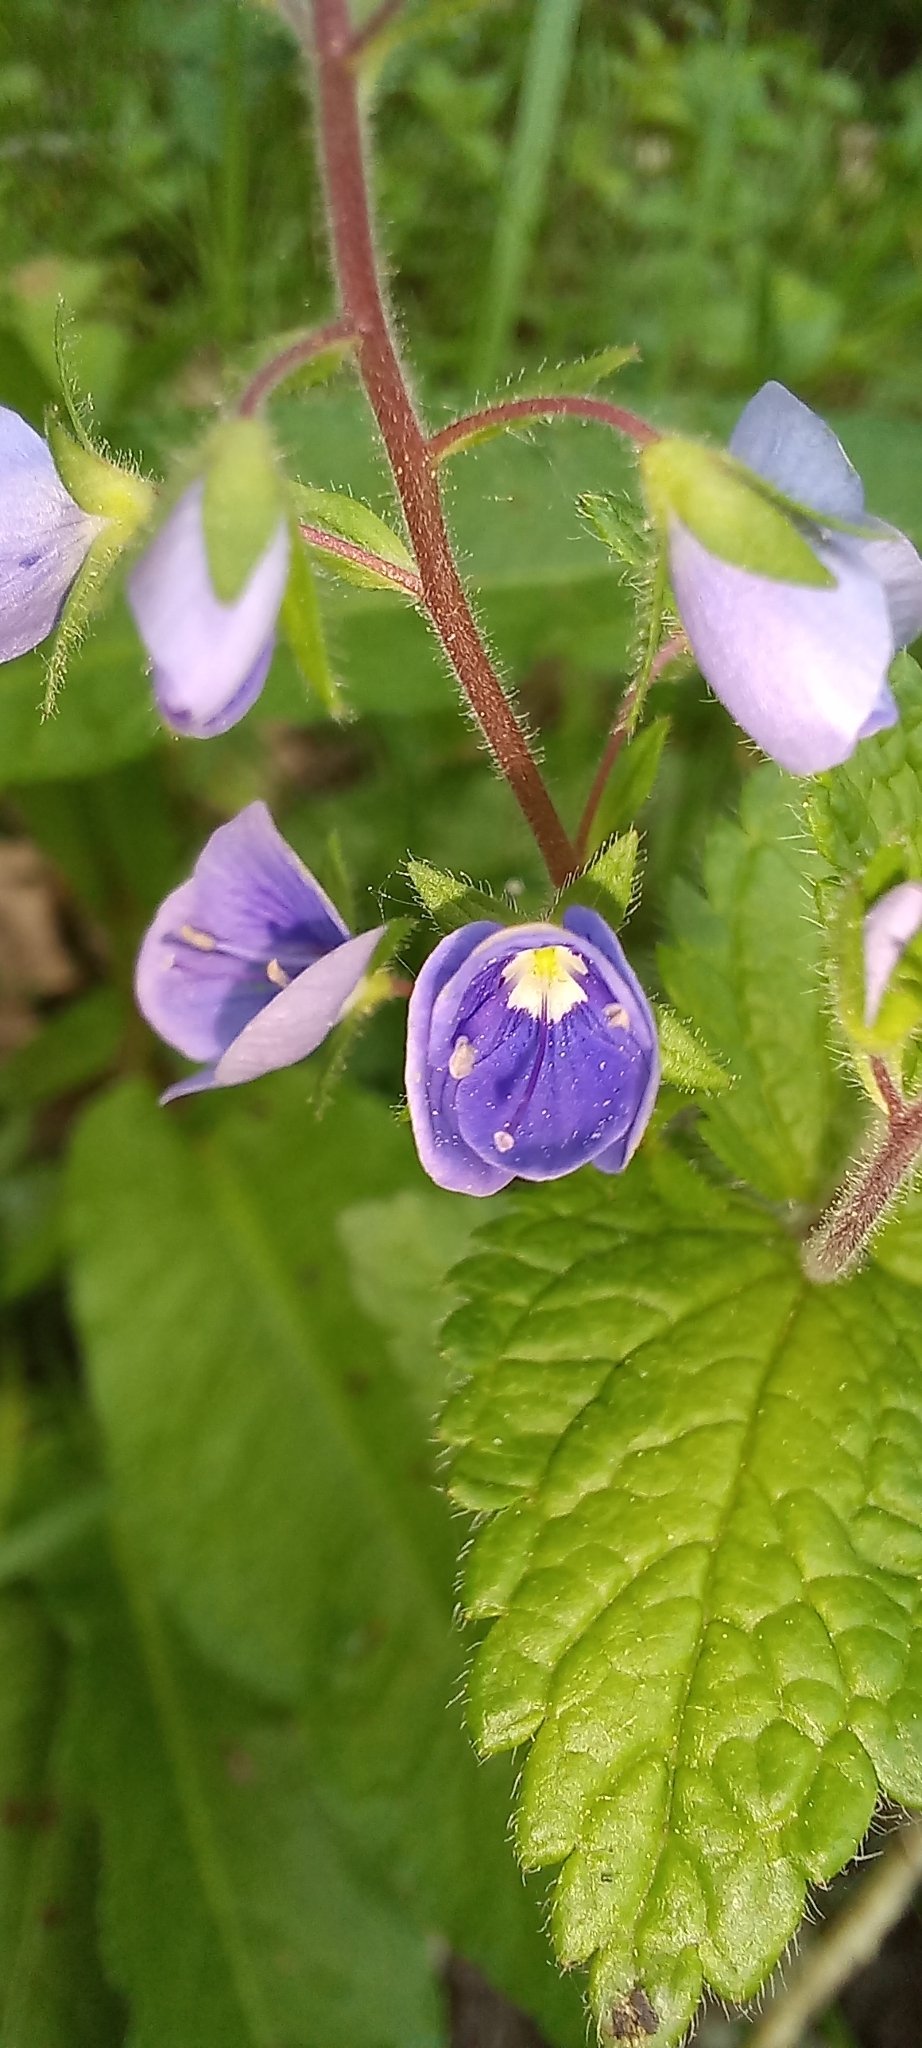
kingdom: Plantae
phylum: Tracheophyta
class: Magnoliopsida
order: Lamiales
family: Plantaginaceae
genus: Veronica
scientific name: Veronica chamaedrys
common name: Germander speedwell
